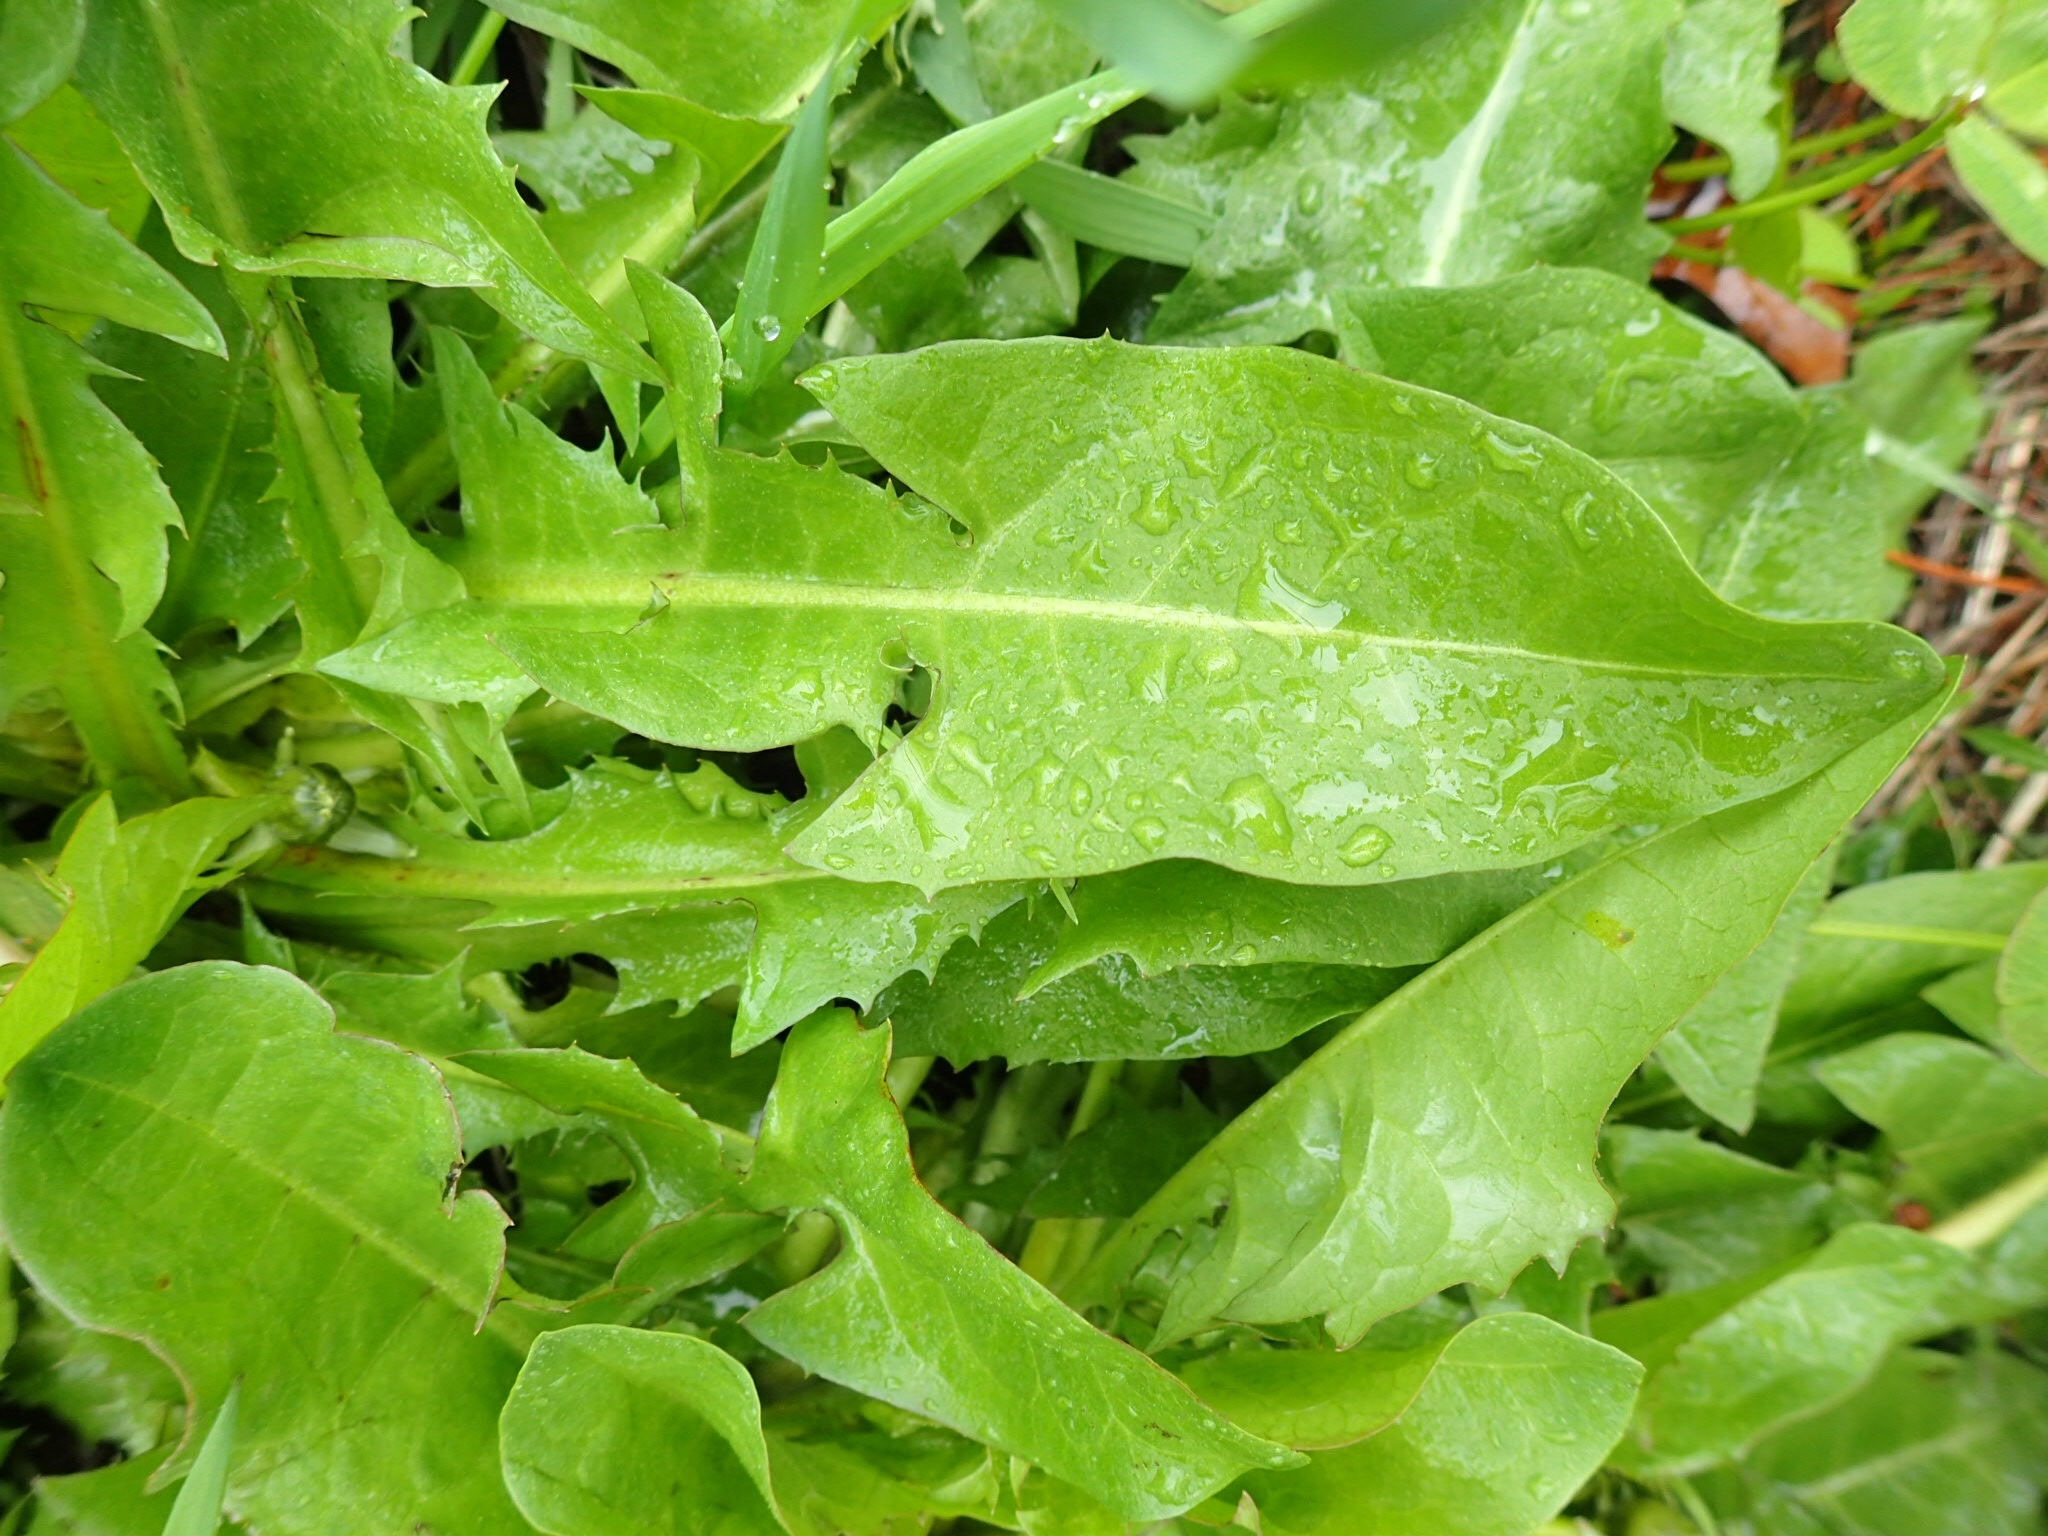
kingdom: Plantae
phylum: Tracheophyta
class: Magnoliopsida
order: Asterales
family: Asteraceae
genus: Taraxacum
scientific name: Taraxacum officinale
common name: Common dandelion
